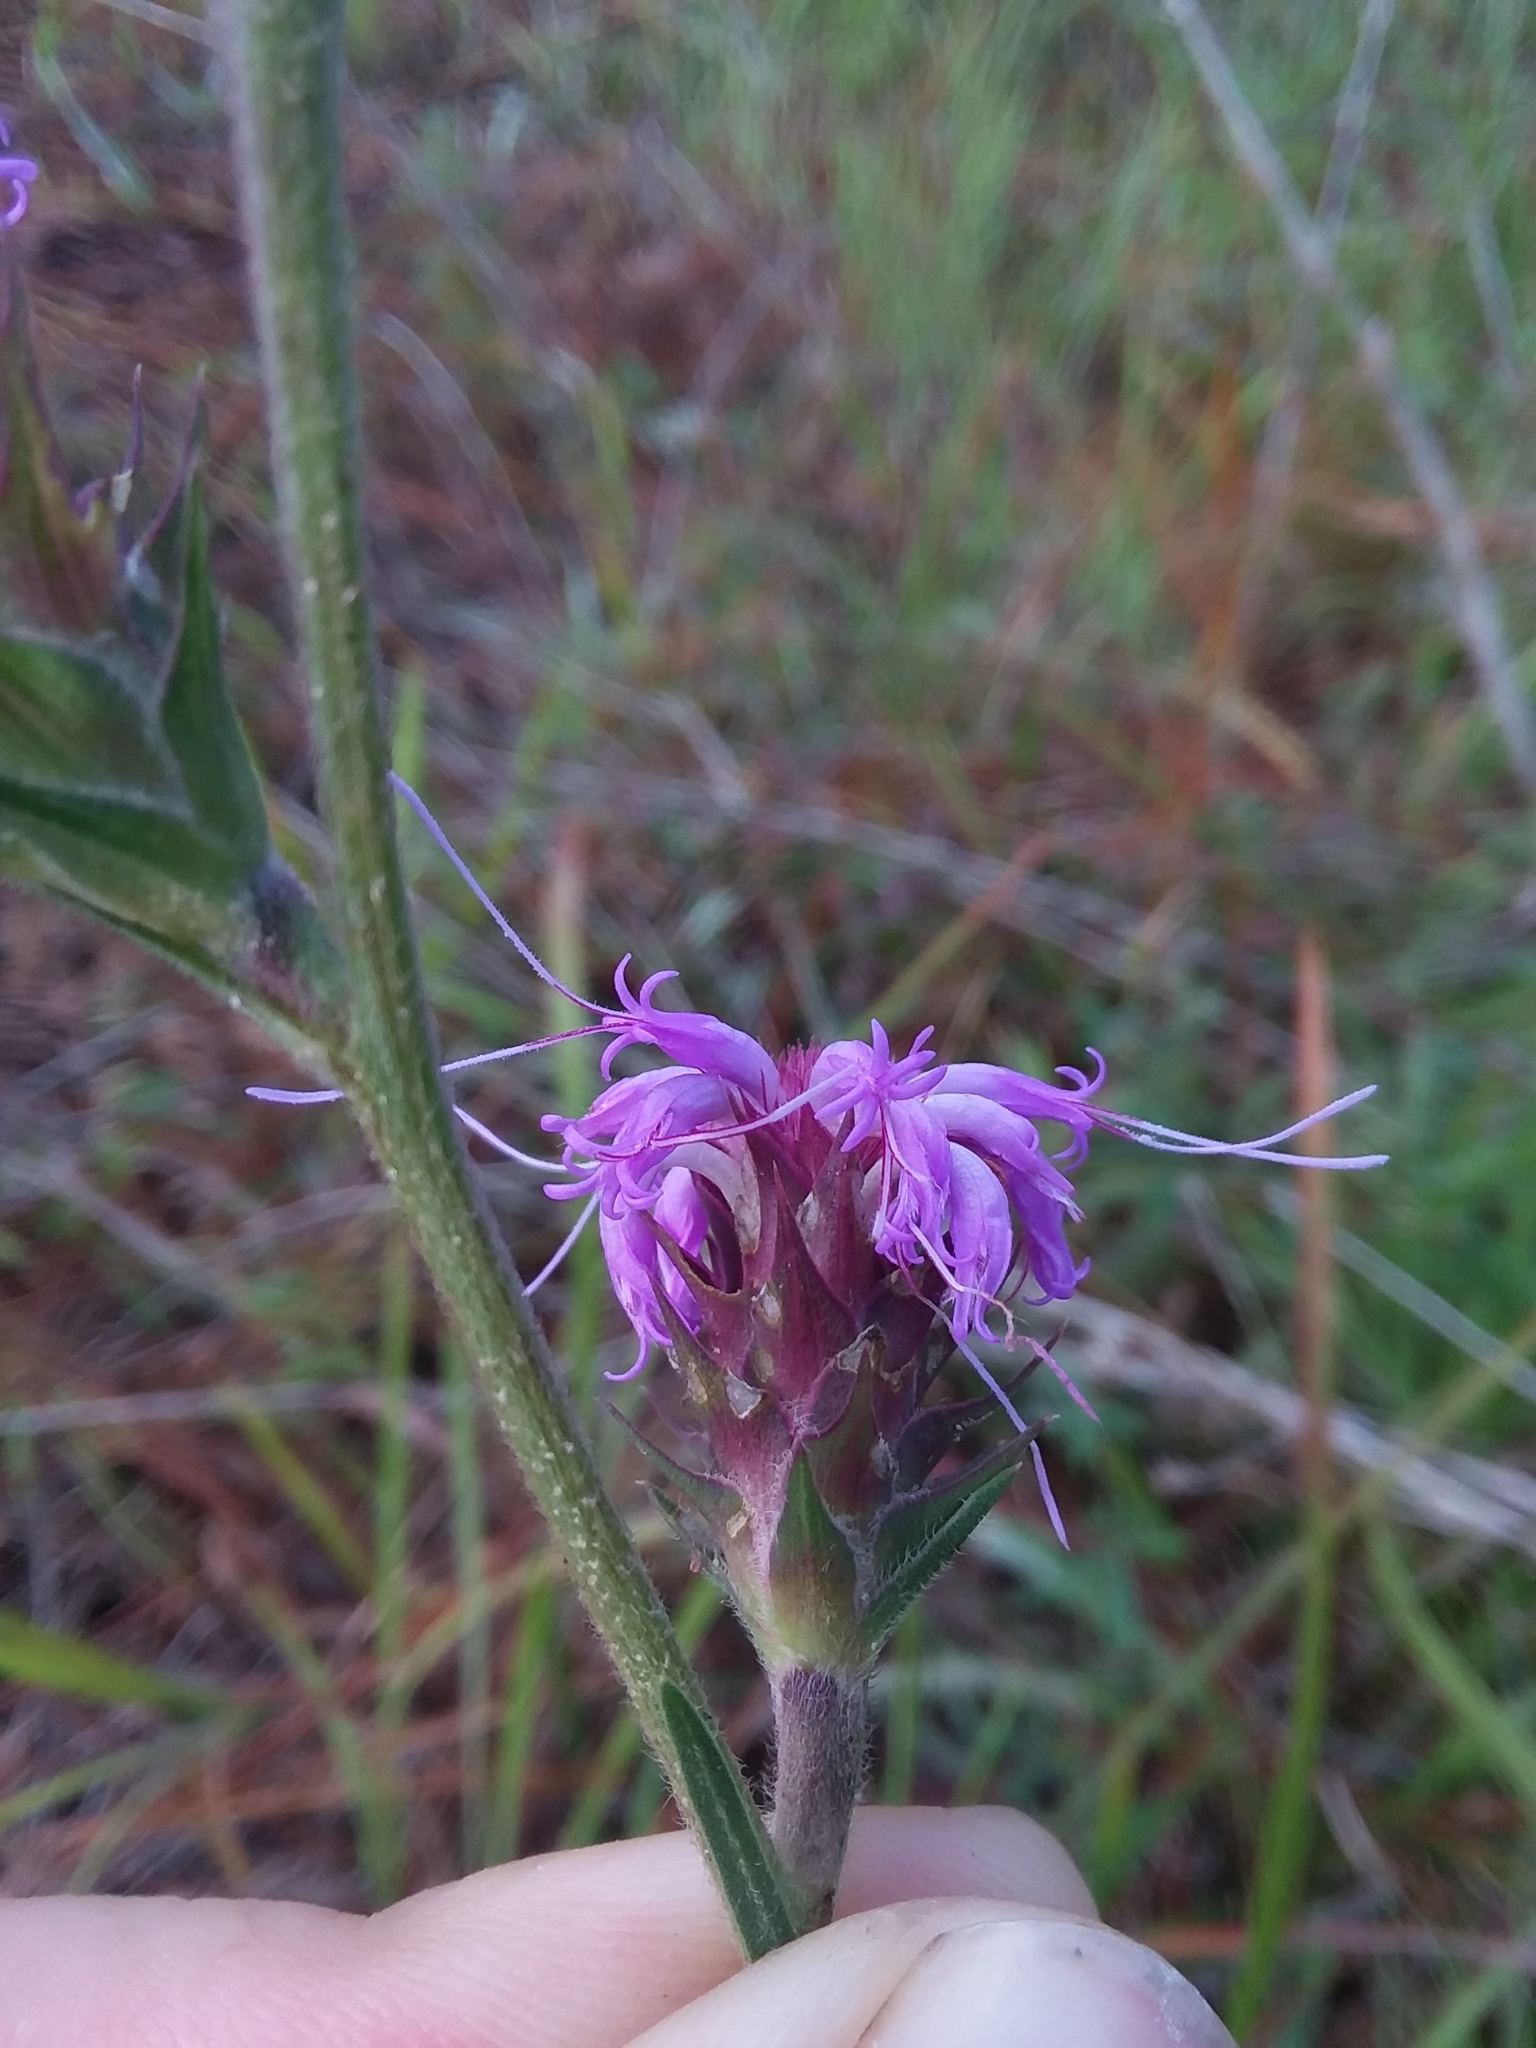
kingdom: Plantae
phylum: Tracheophyta
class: Magnoliopsida
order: Asterales
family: Asteraceae
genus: Liatris
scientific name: Liatris squarrosa
